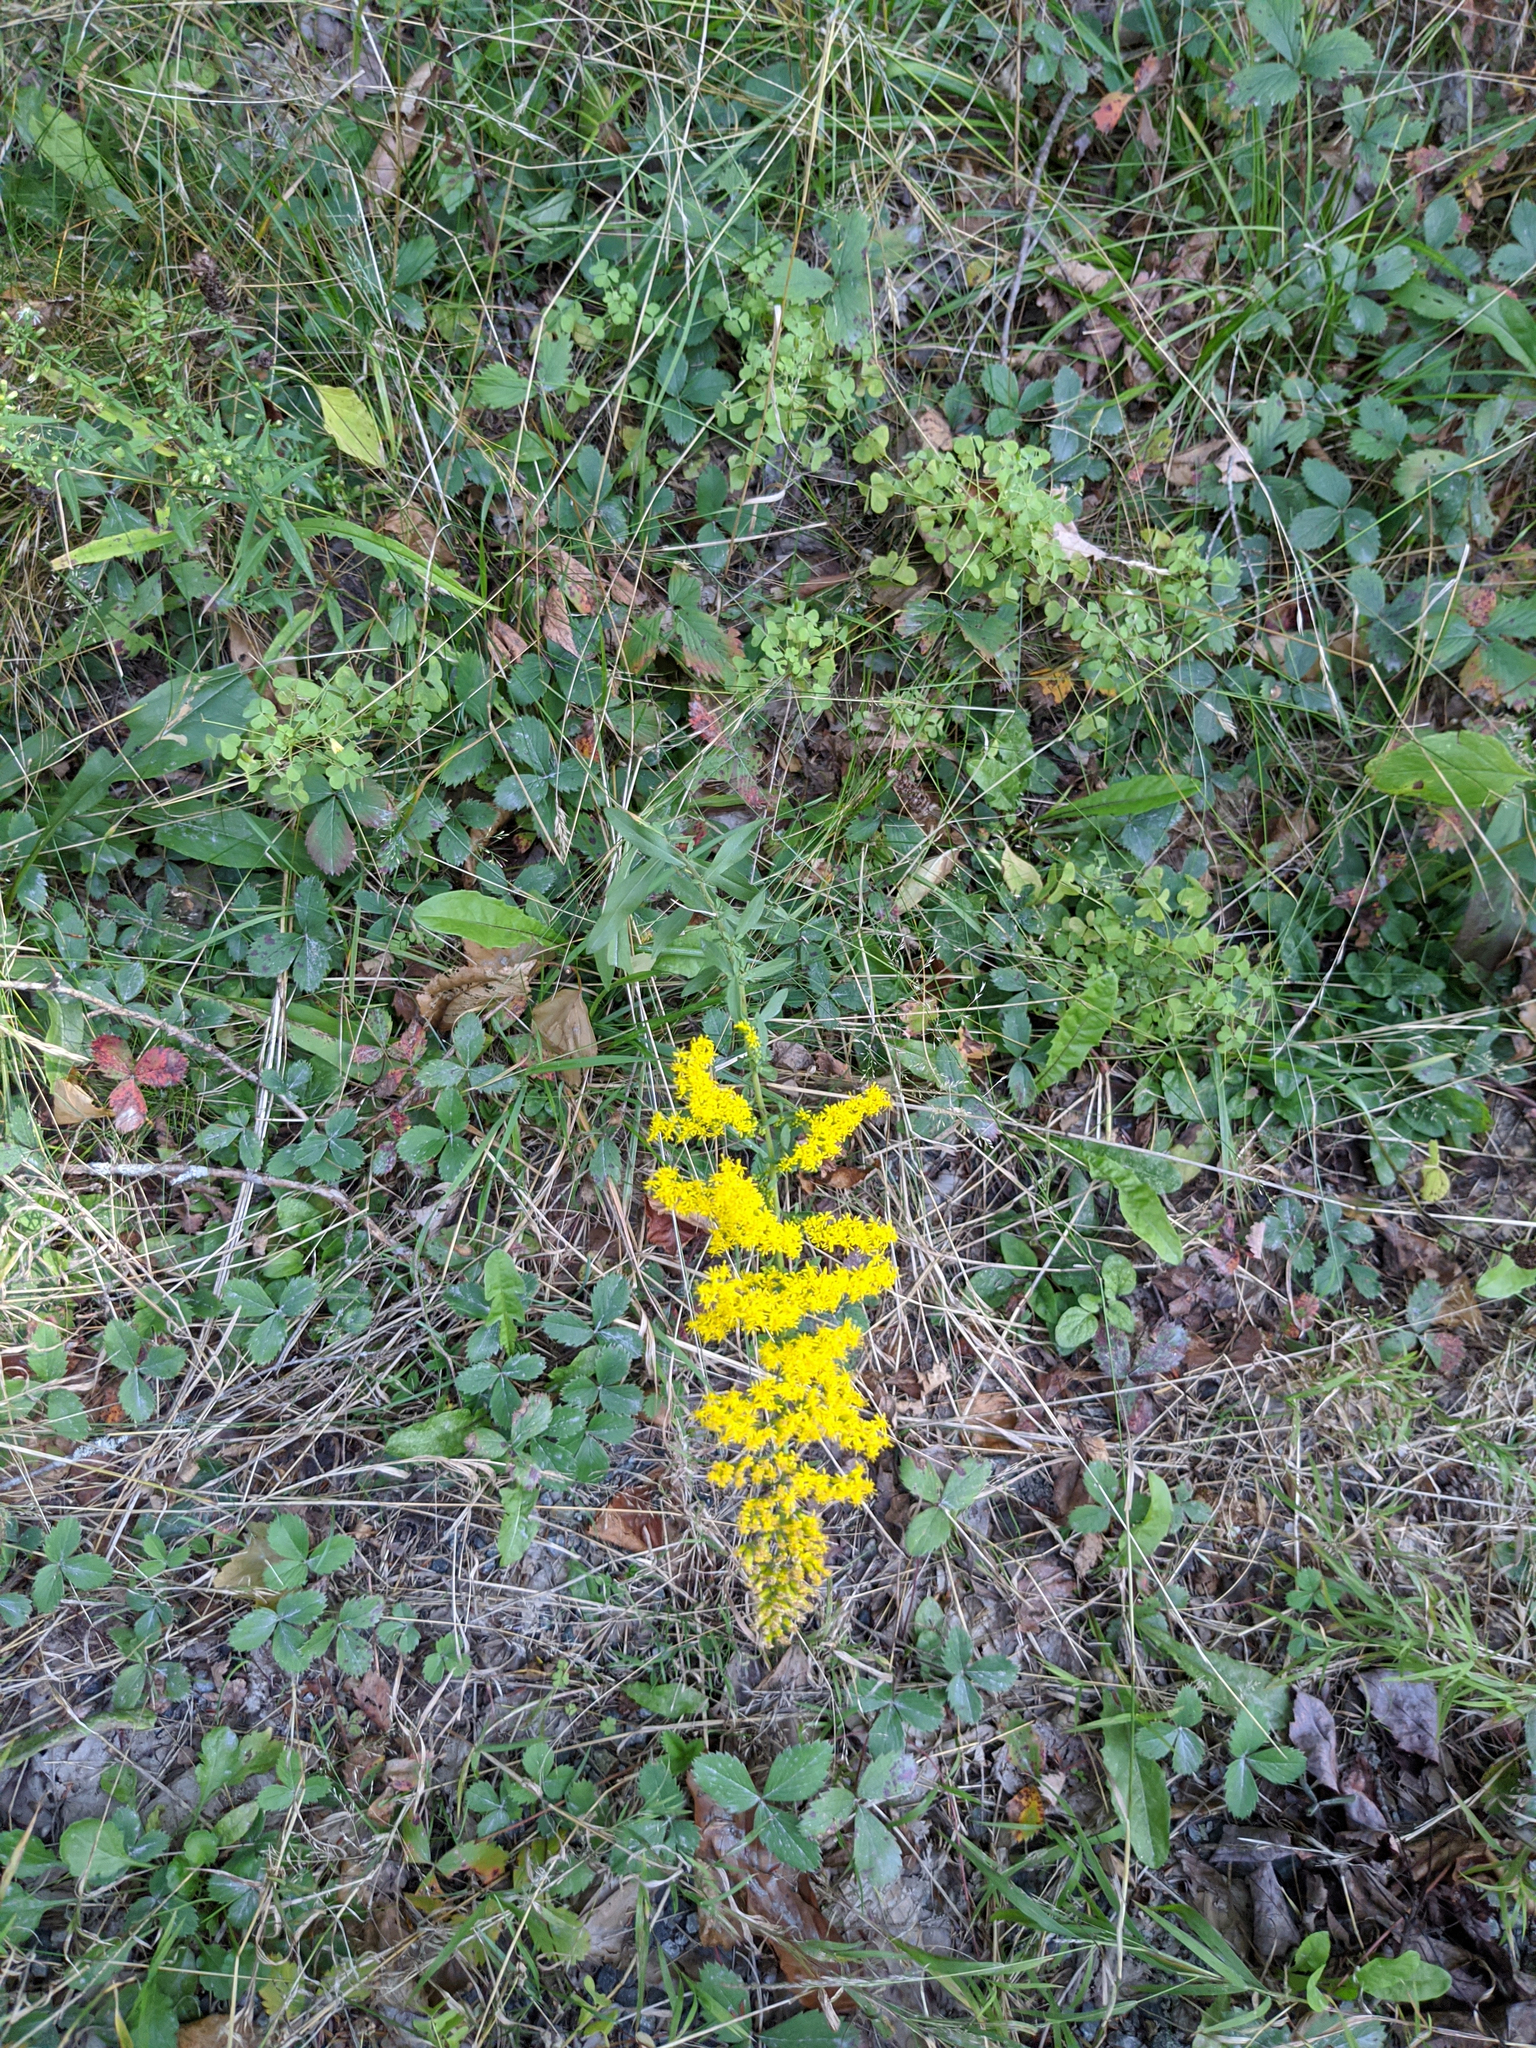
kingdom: Plantae
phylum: Tracheophyta
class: Magnoliopsida
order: Asterales
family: Asteraceae
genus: Solidago
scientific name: Solidago nemoralis
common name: Grey goldenrod
